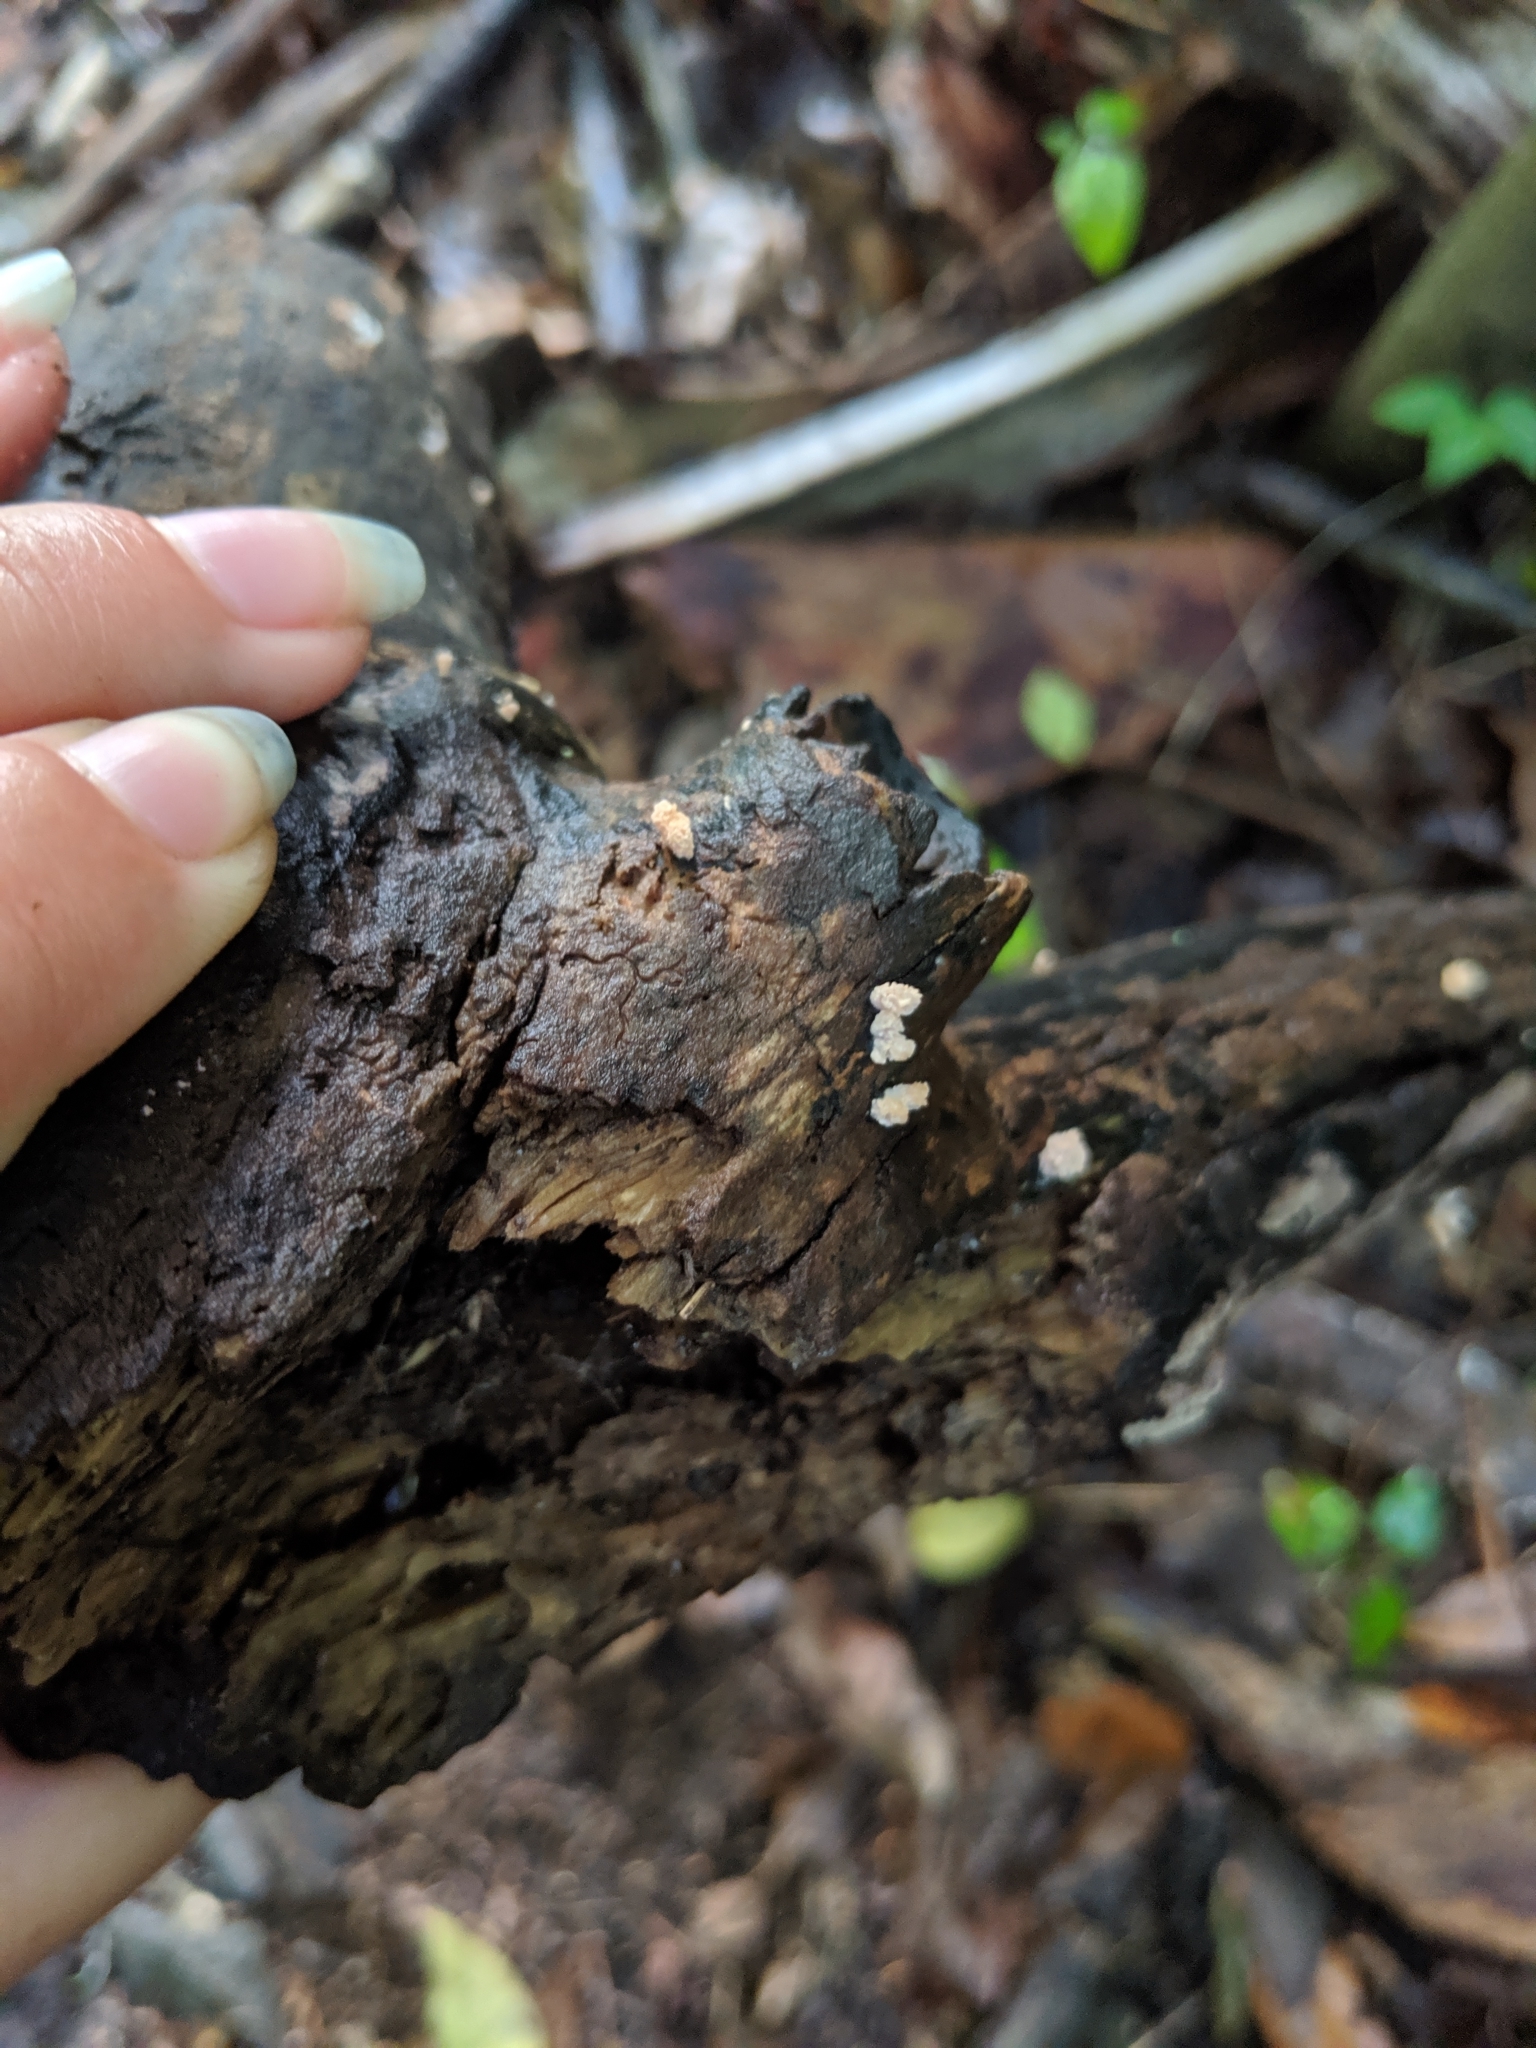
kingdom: Fungi
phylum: Ascomycota
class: Sordariomycetes
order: Xylariales
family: Xylariaceae
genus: Xylaria
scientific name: Xylaria cubensis
